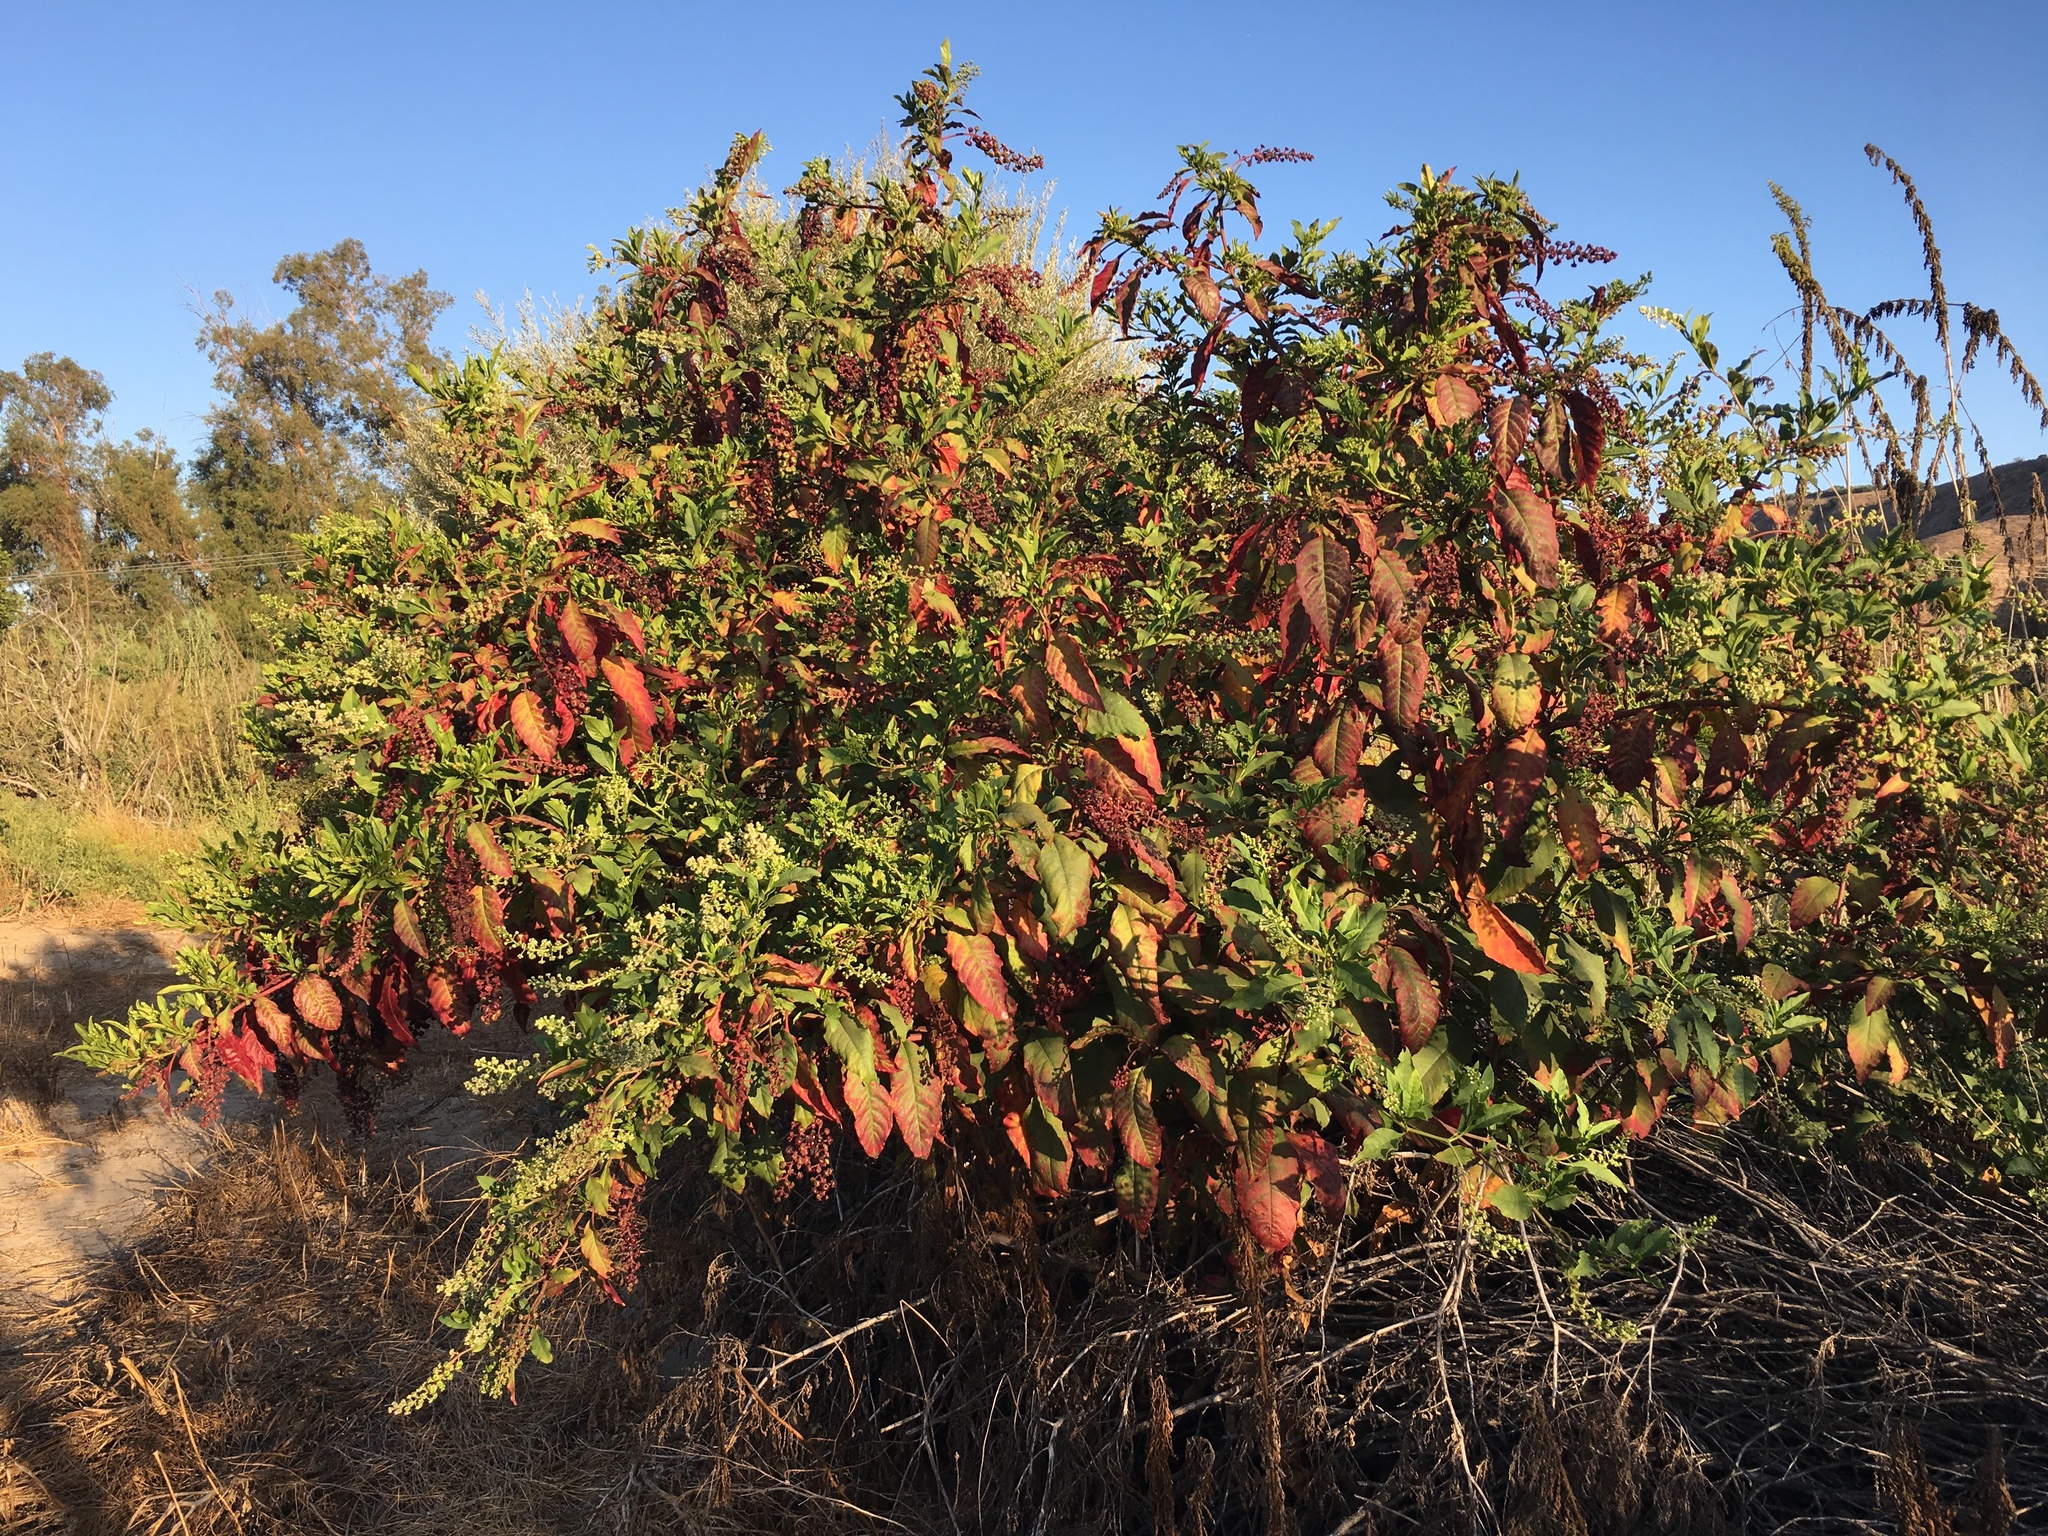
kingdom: Plantae
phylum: Tracheophyta
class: Magnoliopsida
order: Caryophyllales
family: Phytolaccaceae
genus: Phytolacca
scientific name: Phytolacca americana
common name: American pokeweed
